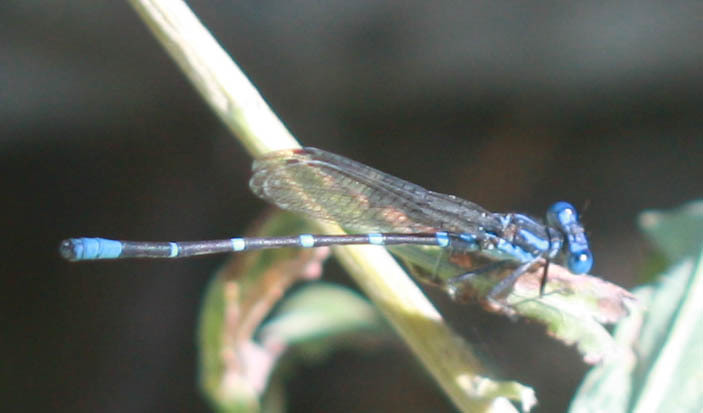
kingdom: Animalia
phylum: Arthropoda
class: Insecta
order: Odonata
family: Coenagrionidae
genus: Argia
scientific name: Argia sedula
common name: Blue-ringed dancer
